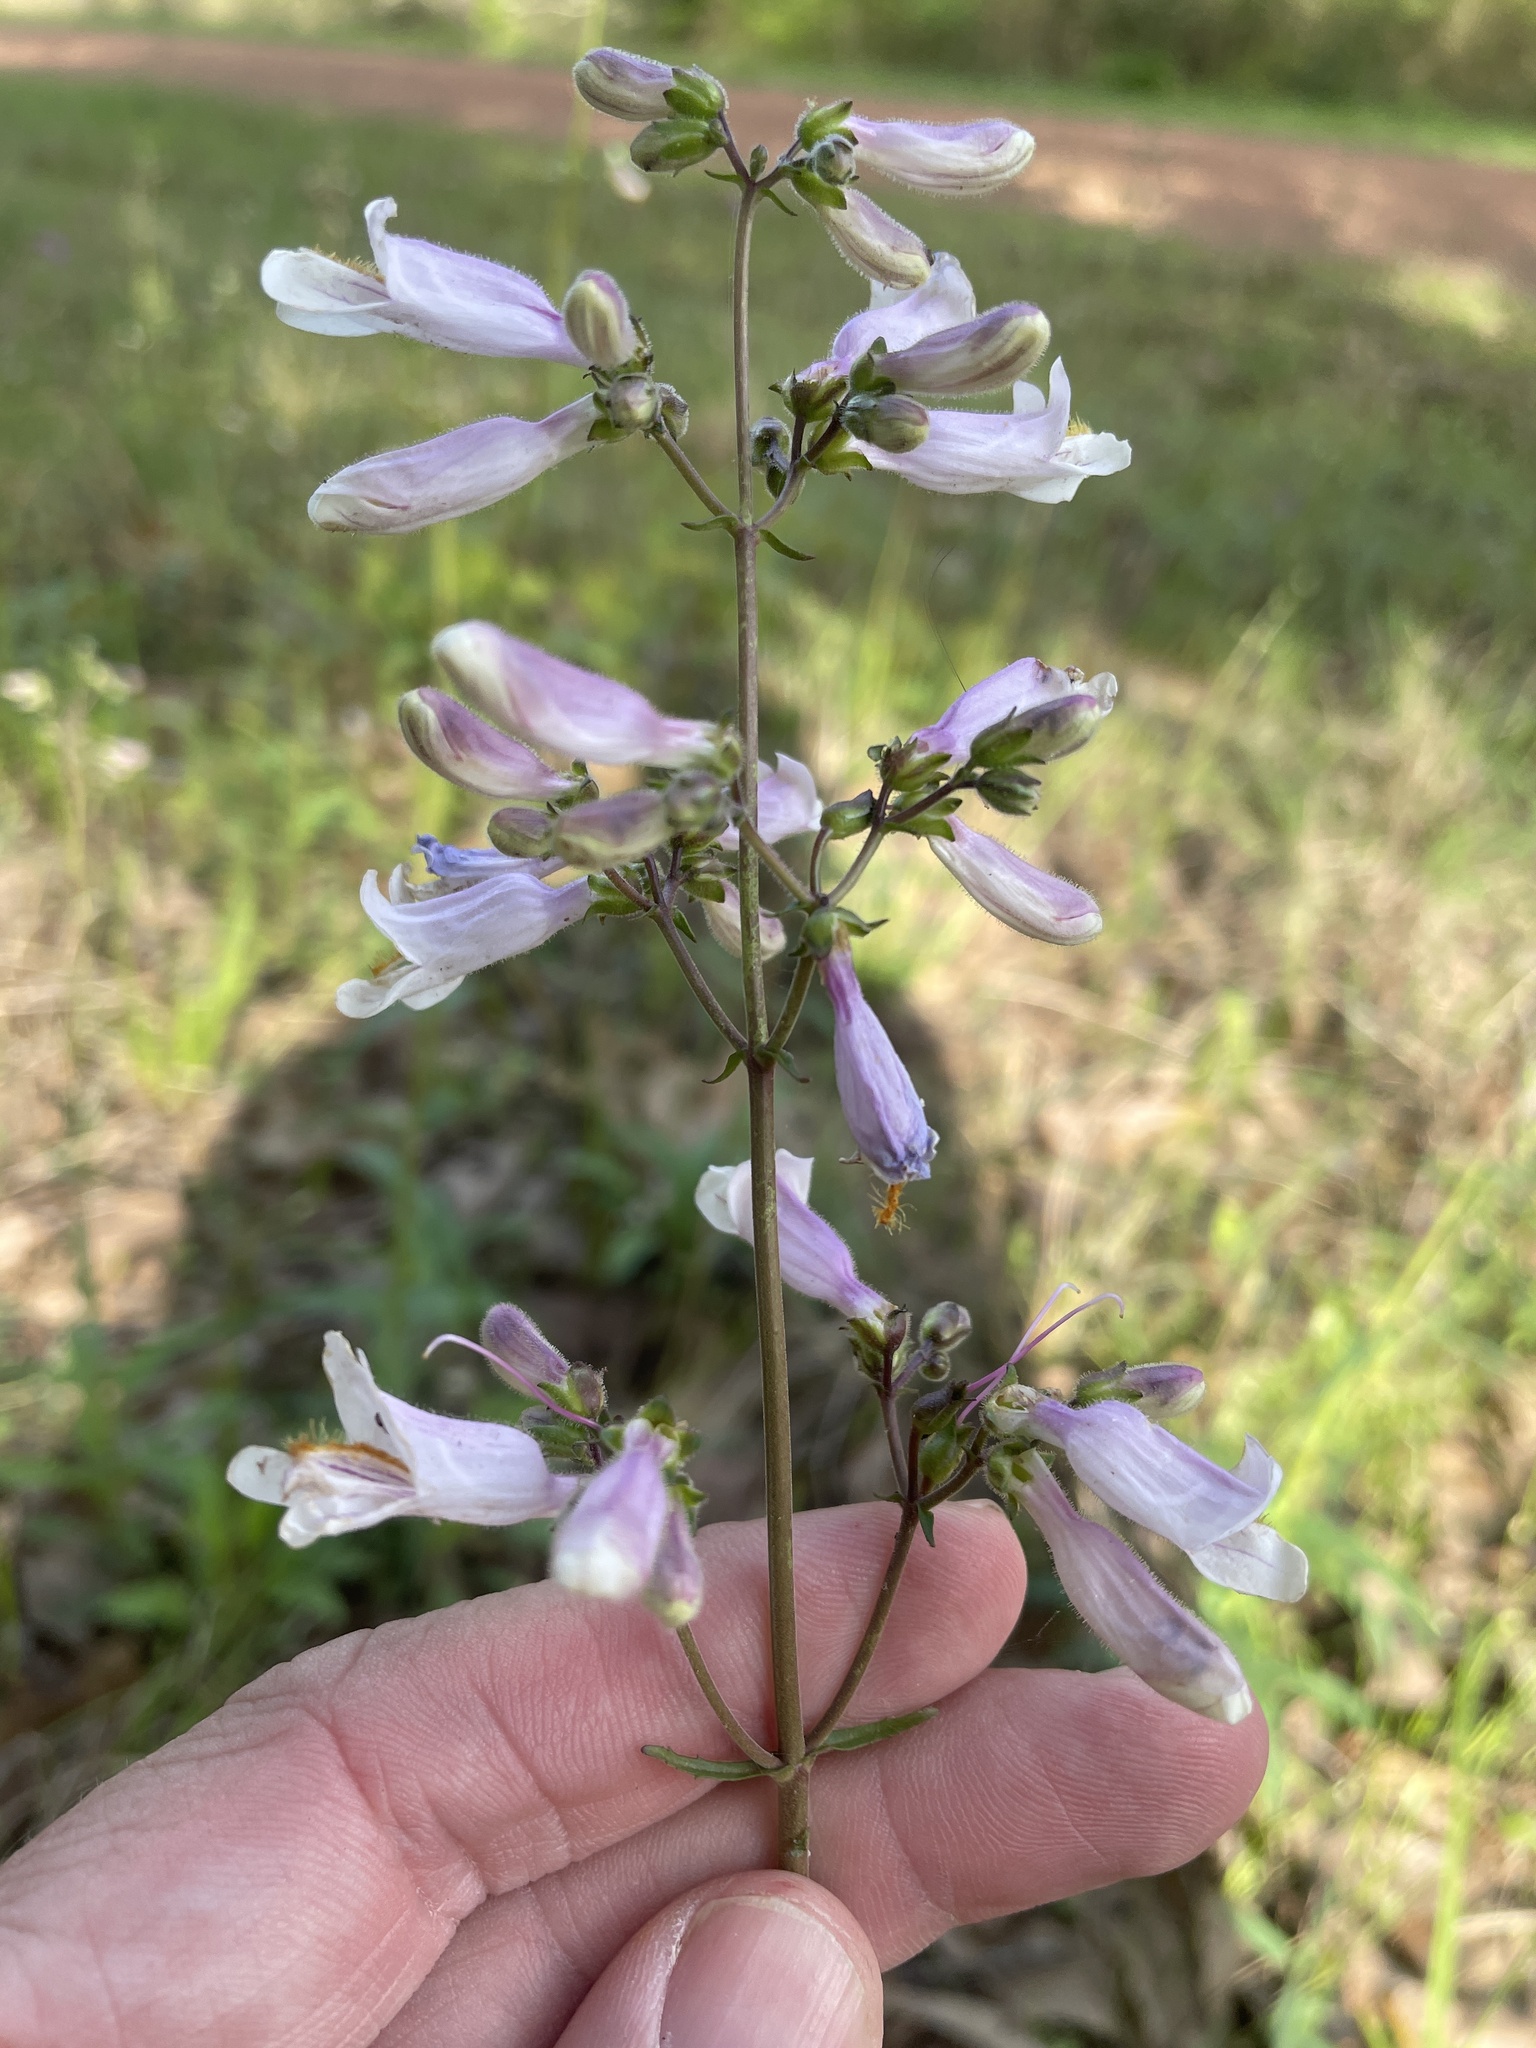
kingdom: Plantae
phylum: Tracheophyta
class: Magnoliopsida
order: Lamiales
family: Plantaginaceae
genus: Penstemon
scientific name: Penstemon laxiflorus
